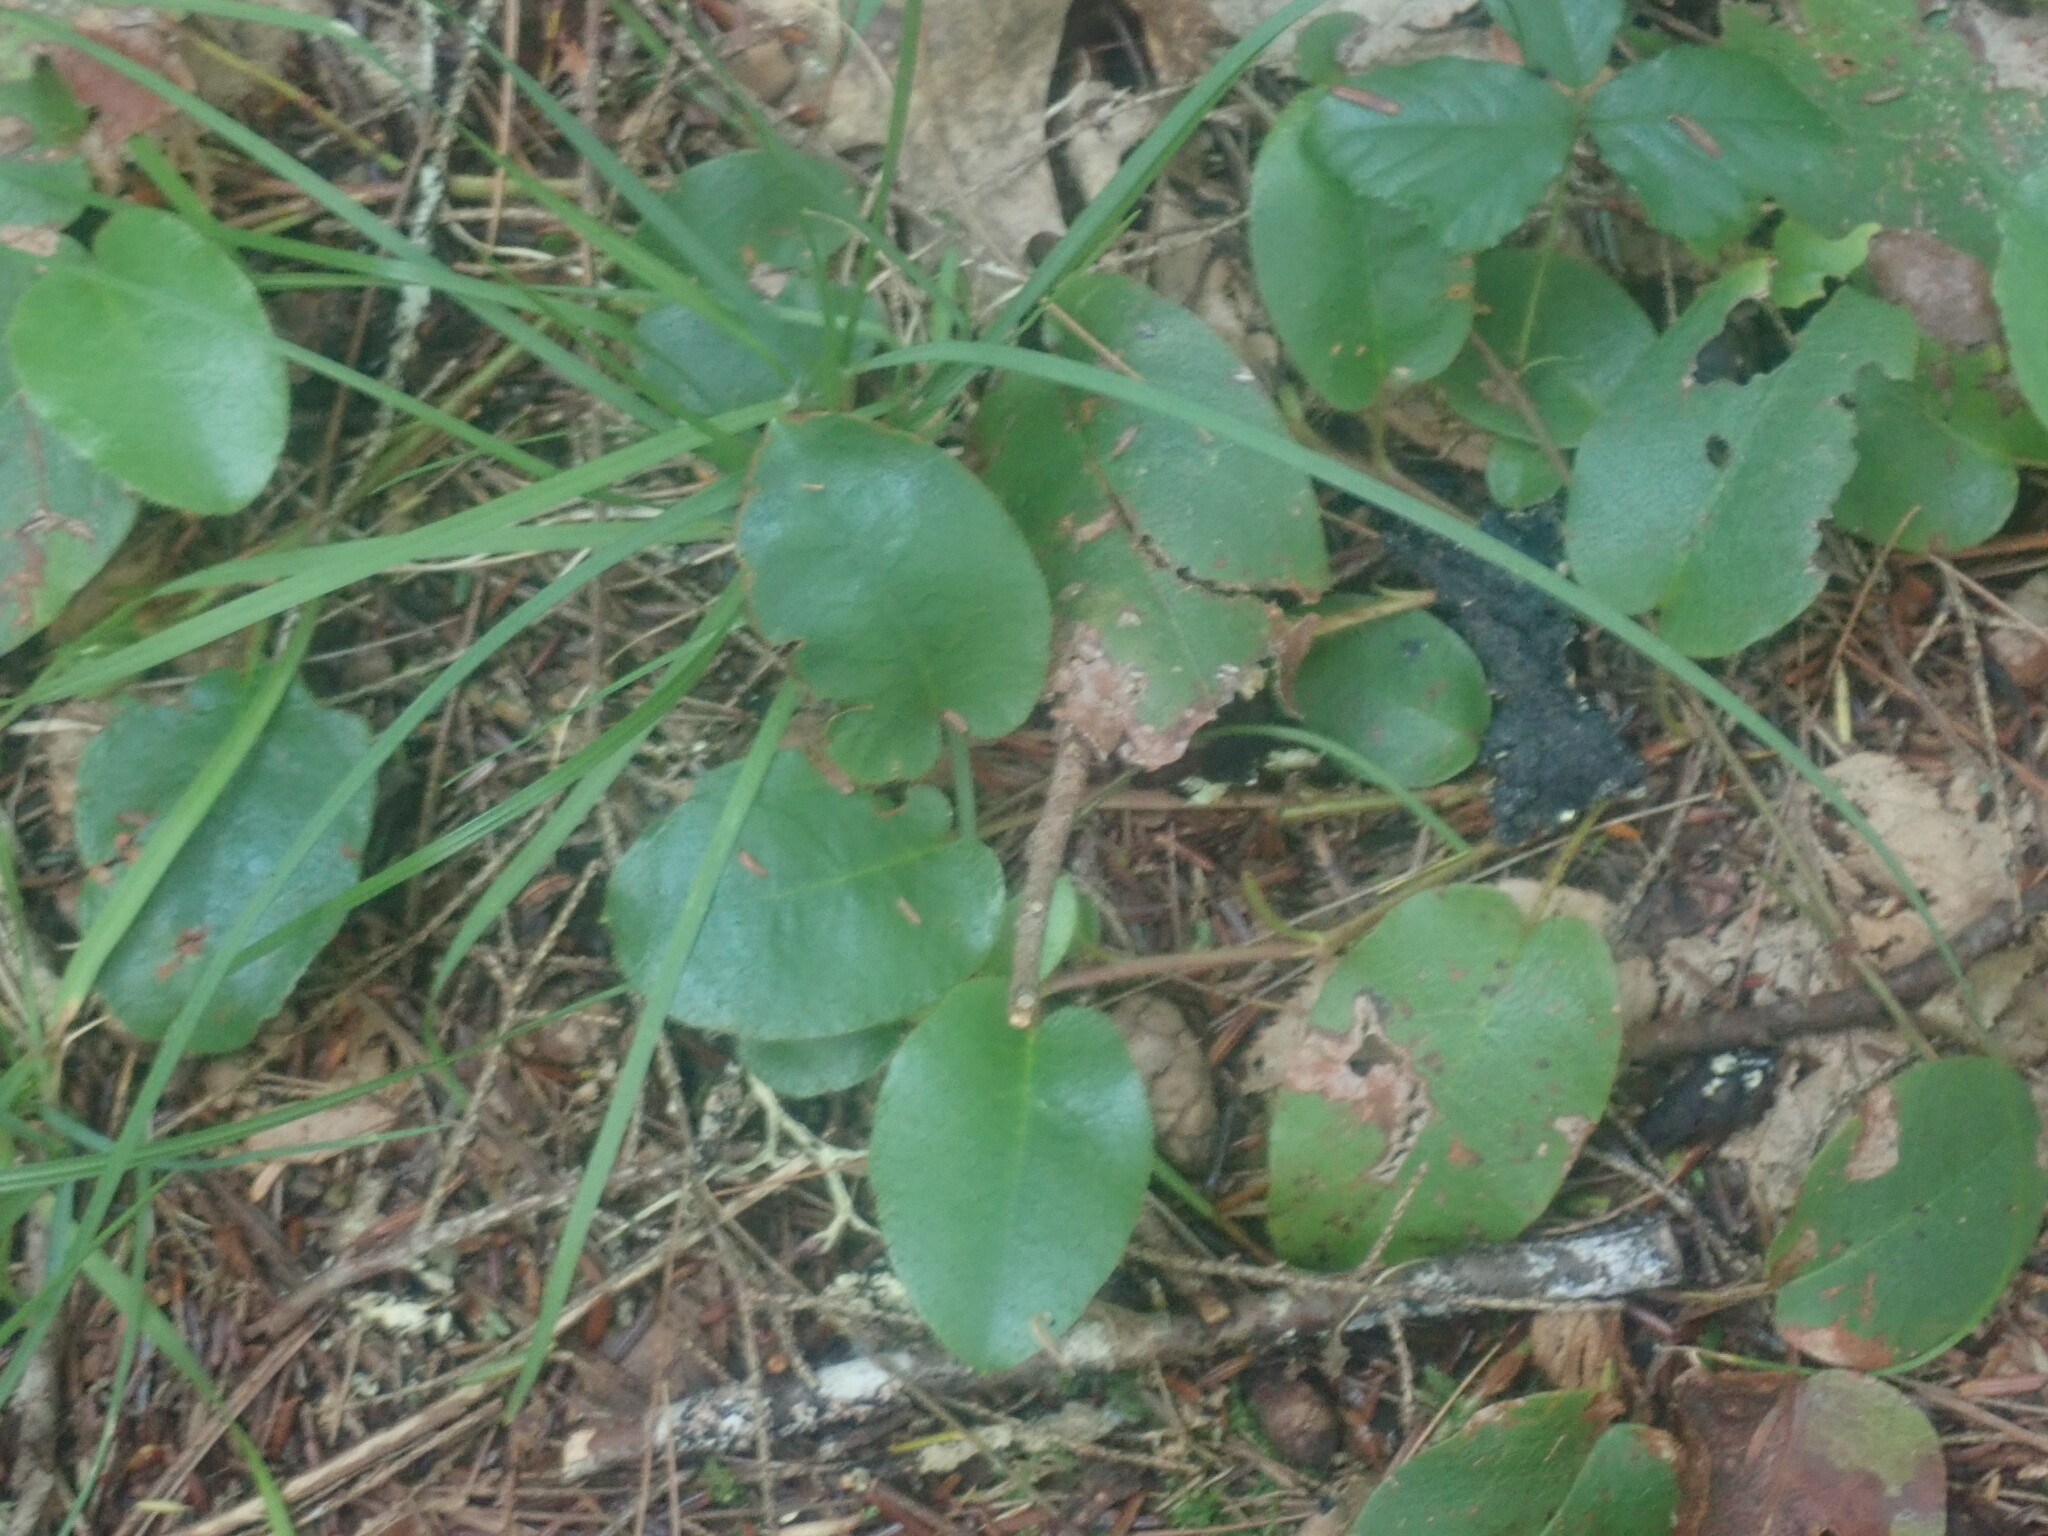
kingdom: Plantae
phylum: Tracheophyta
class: Magnoliopsida
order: Ericales
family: Ericaceae
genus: Epigaea
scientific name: Epigaea repens
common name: Gravelroot
